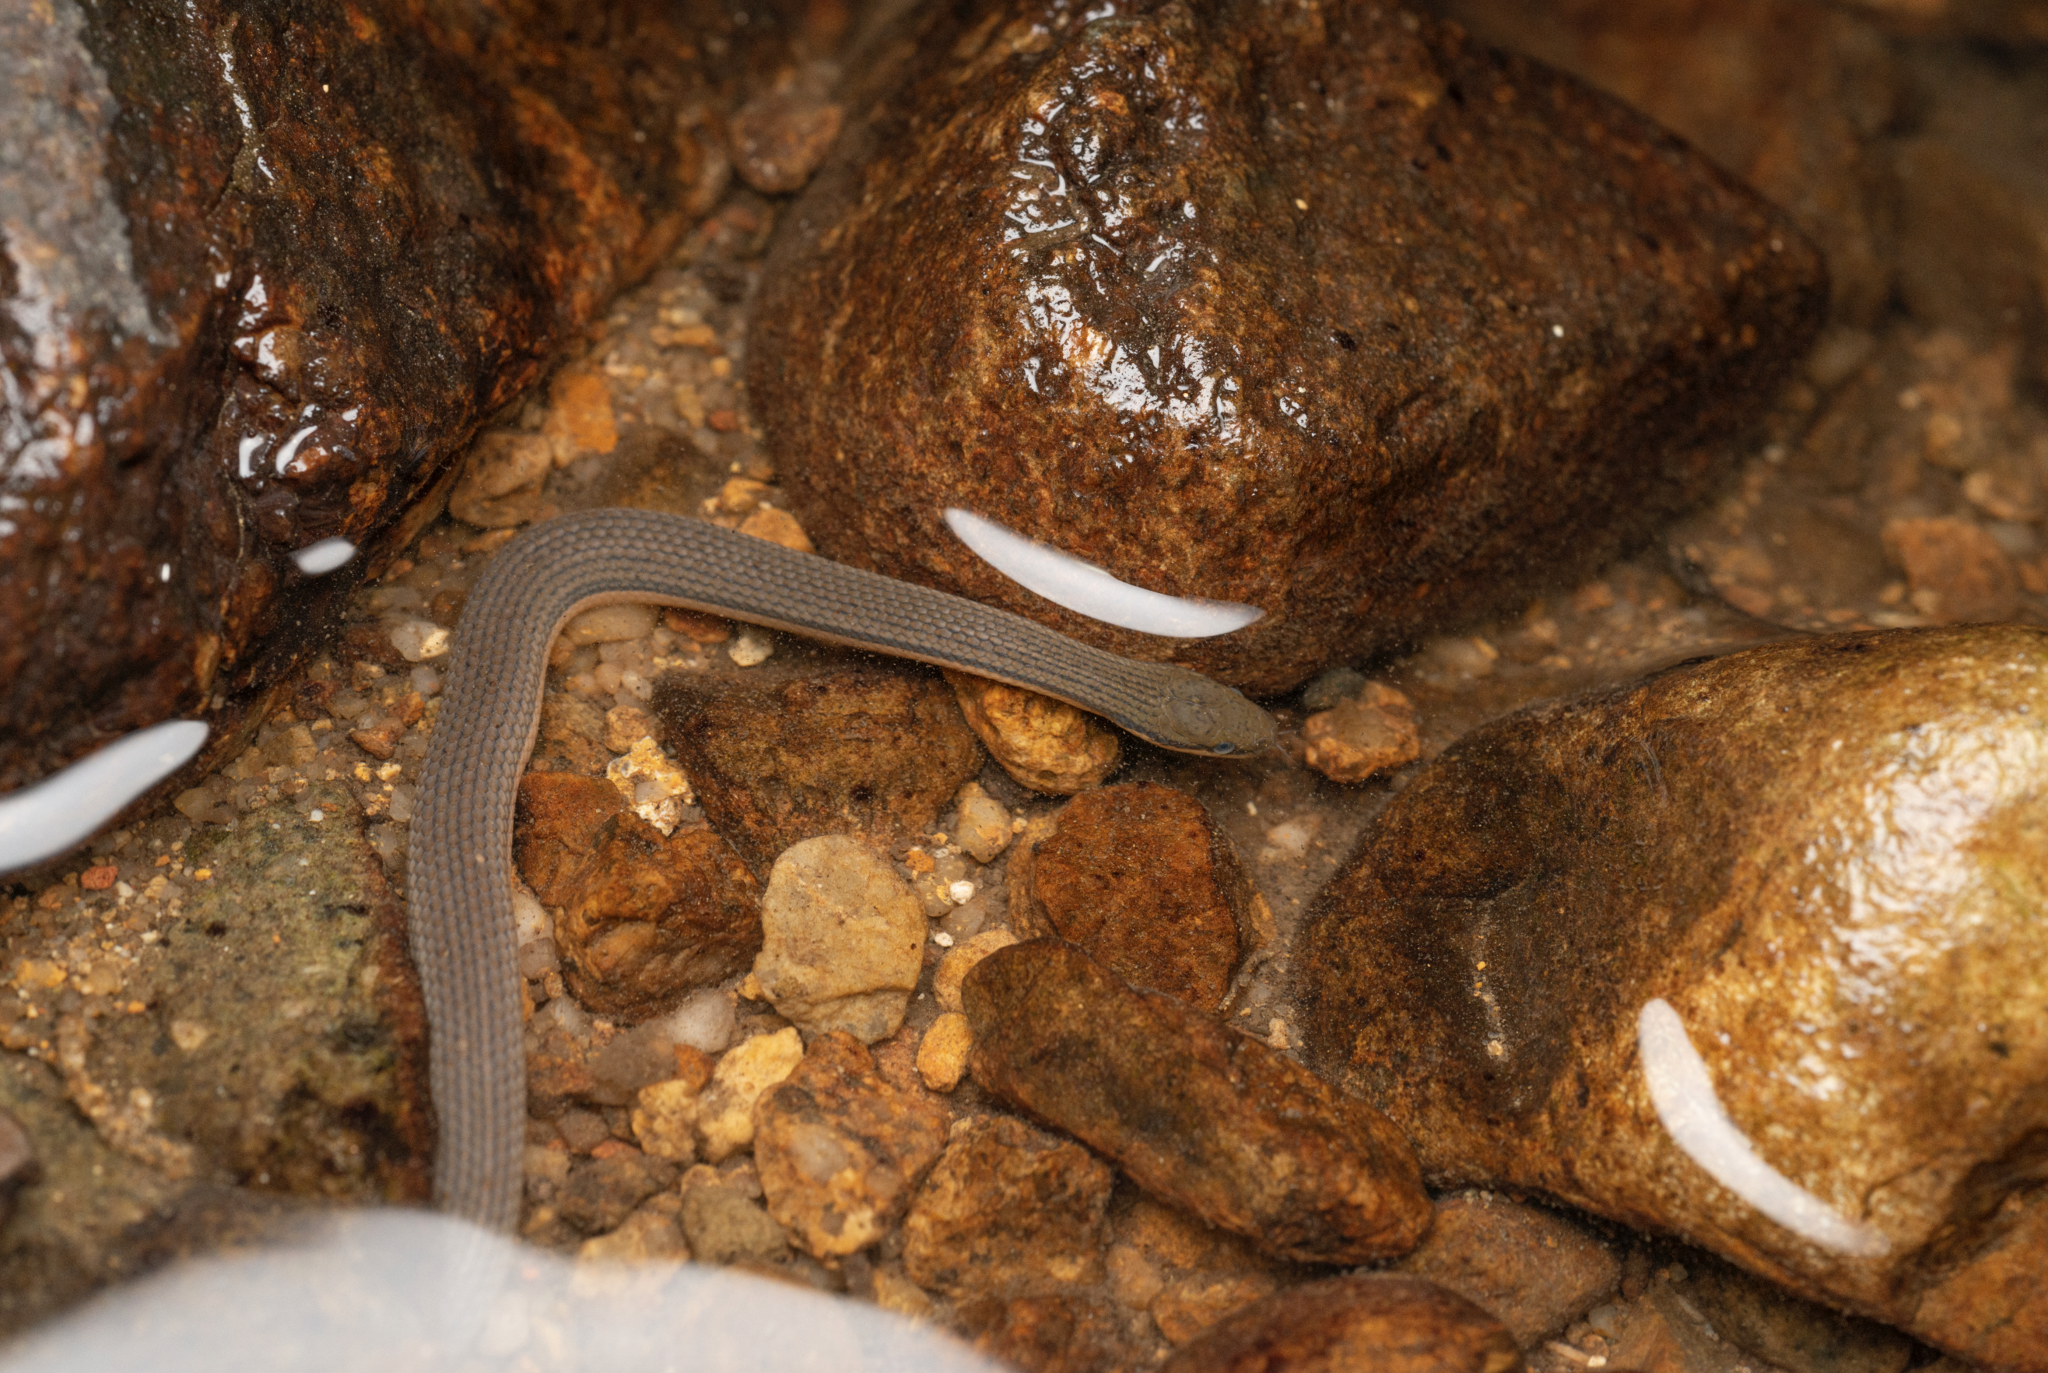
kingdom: Animalia
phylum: Chordata
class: Squamata
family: Colubridae
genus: Opisthotropis
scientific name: Opisthotropis lateralis
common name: Tonkin mountain keelback
